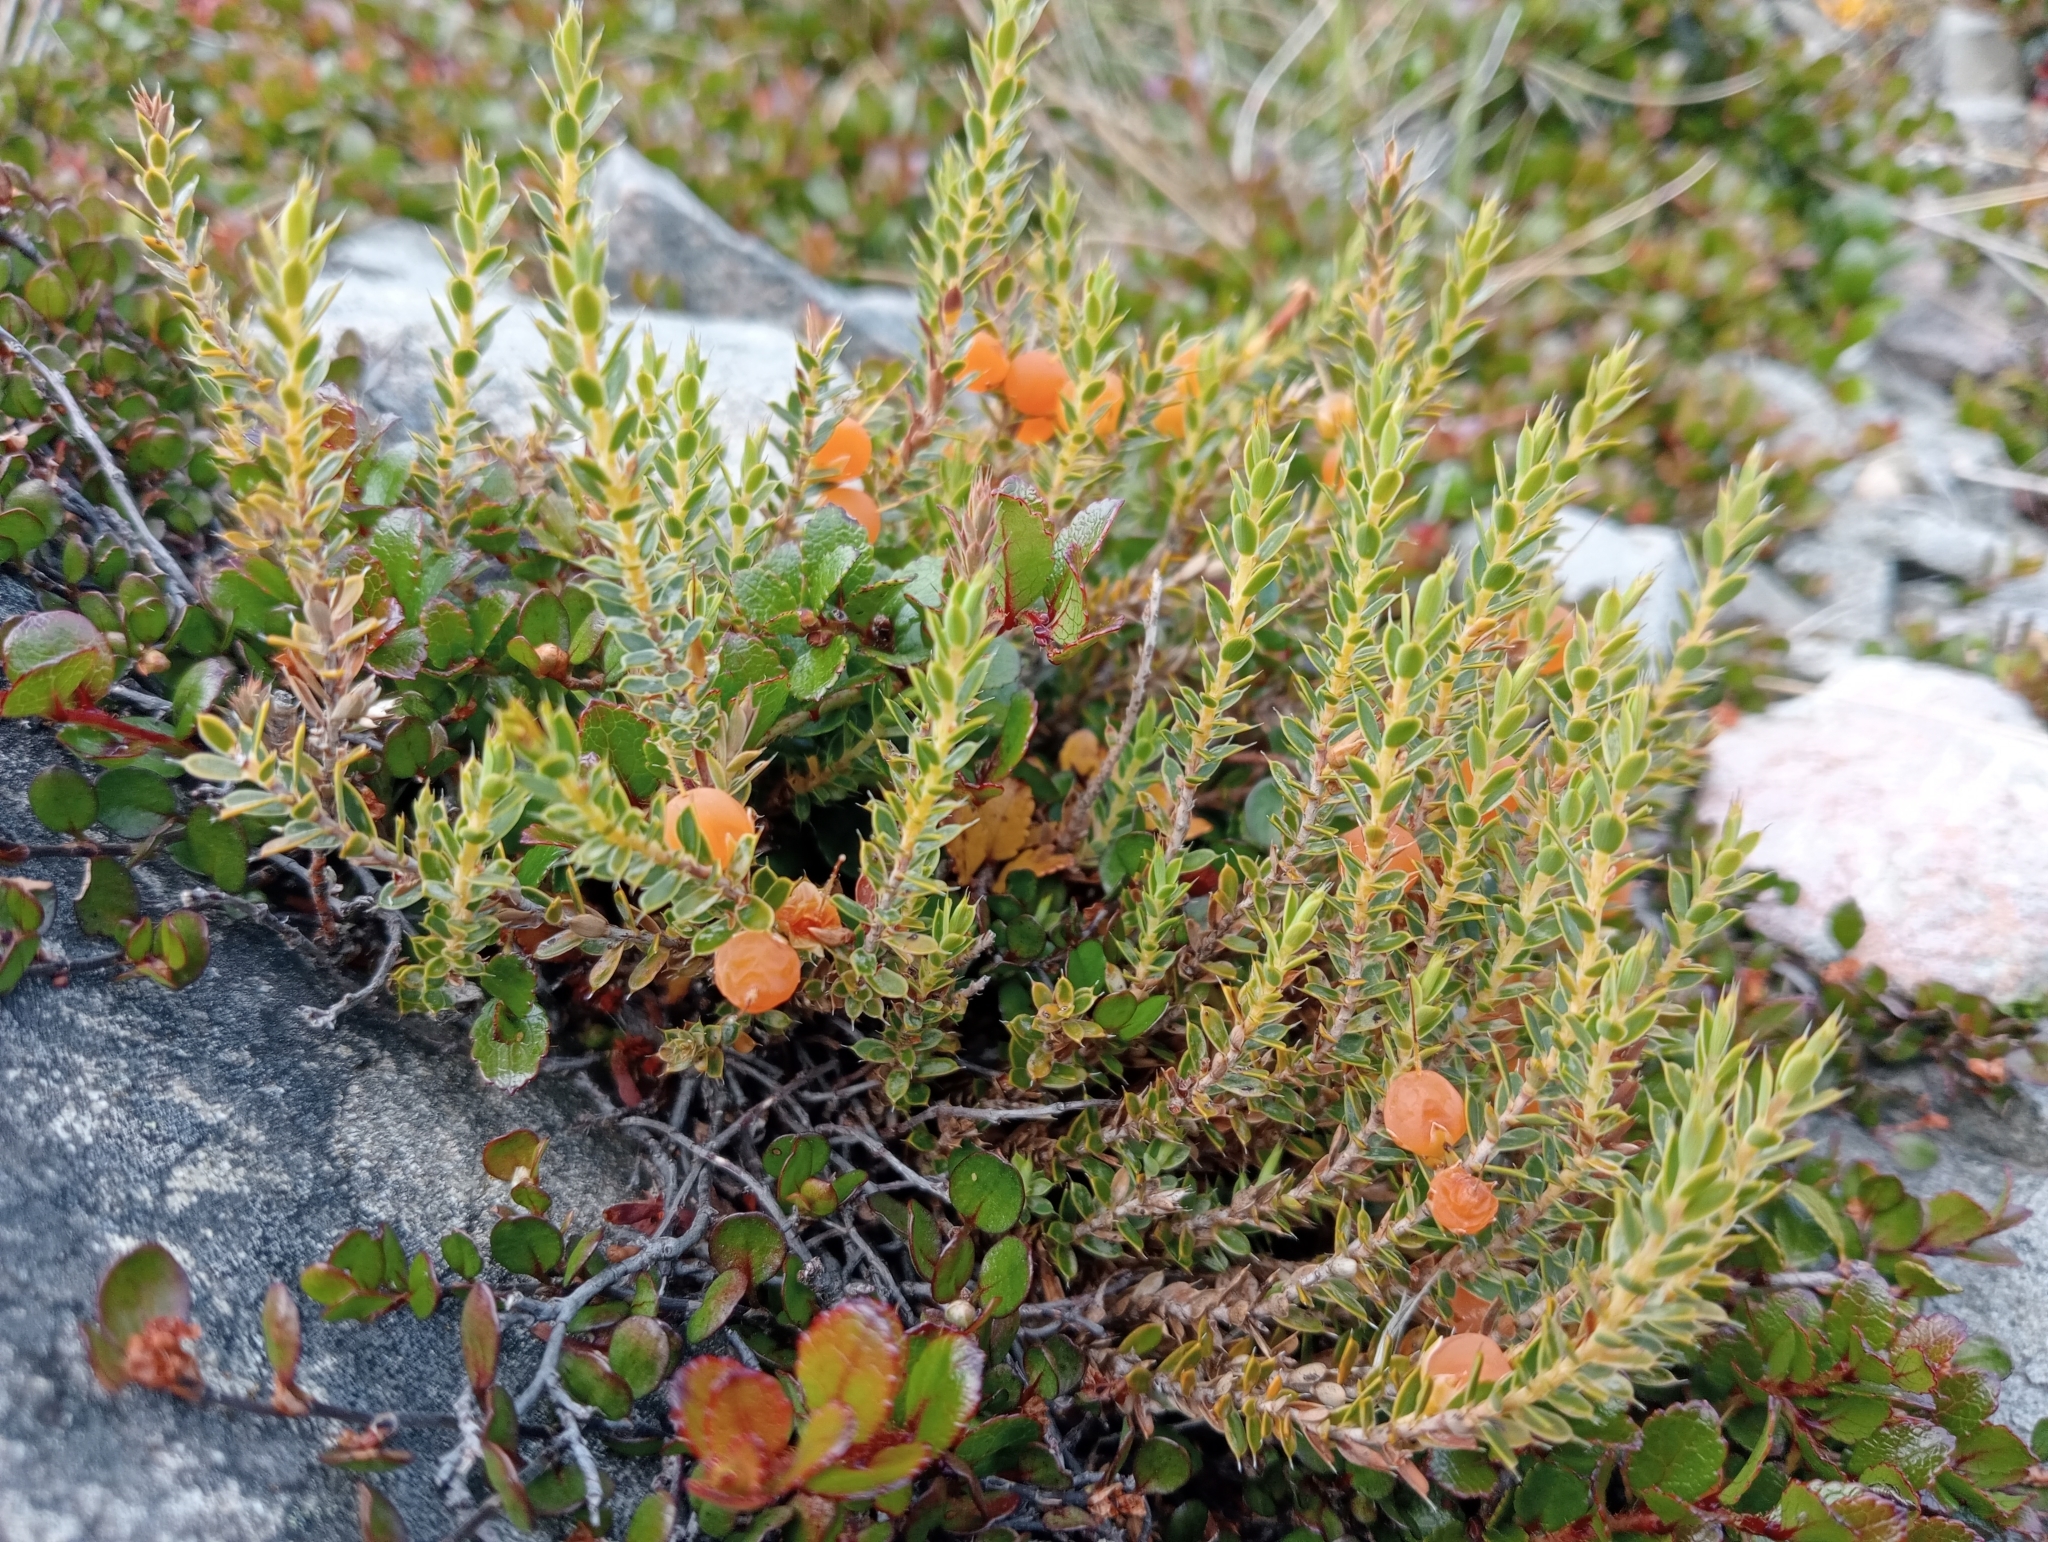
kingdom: Plantae
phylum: Tracheophyta
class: Magnoliopsida
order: Ericales
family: Ericaceae
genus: Styphelia
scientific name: Styphelia nesophila
